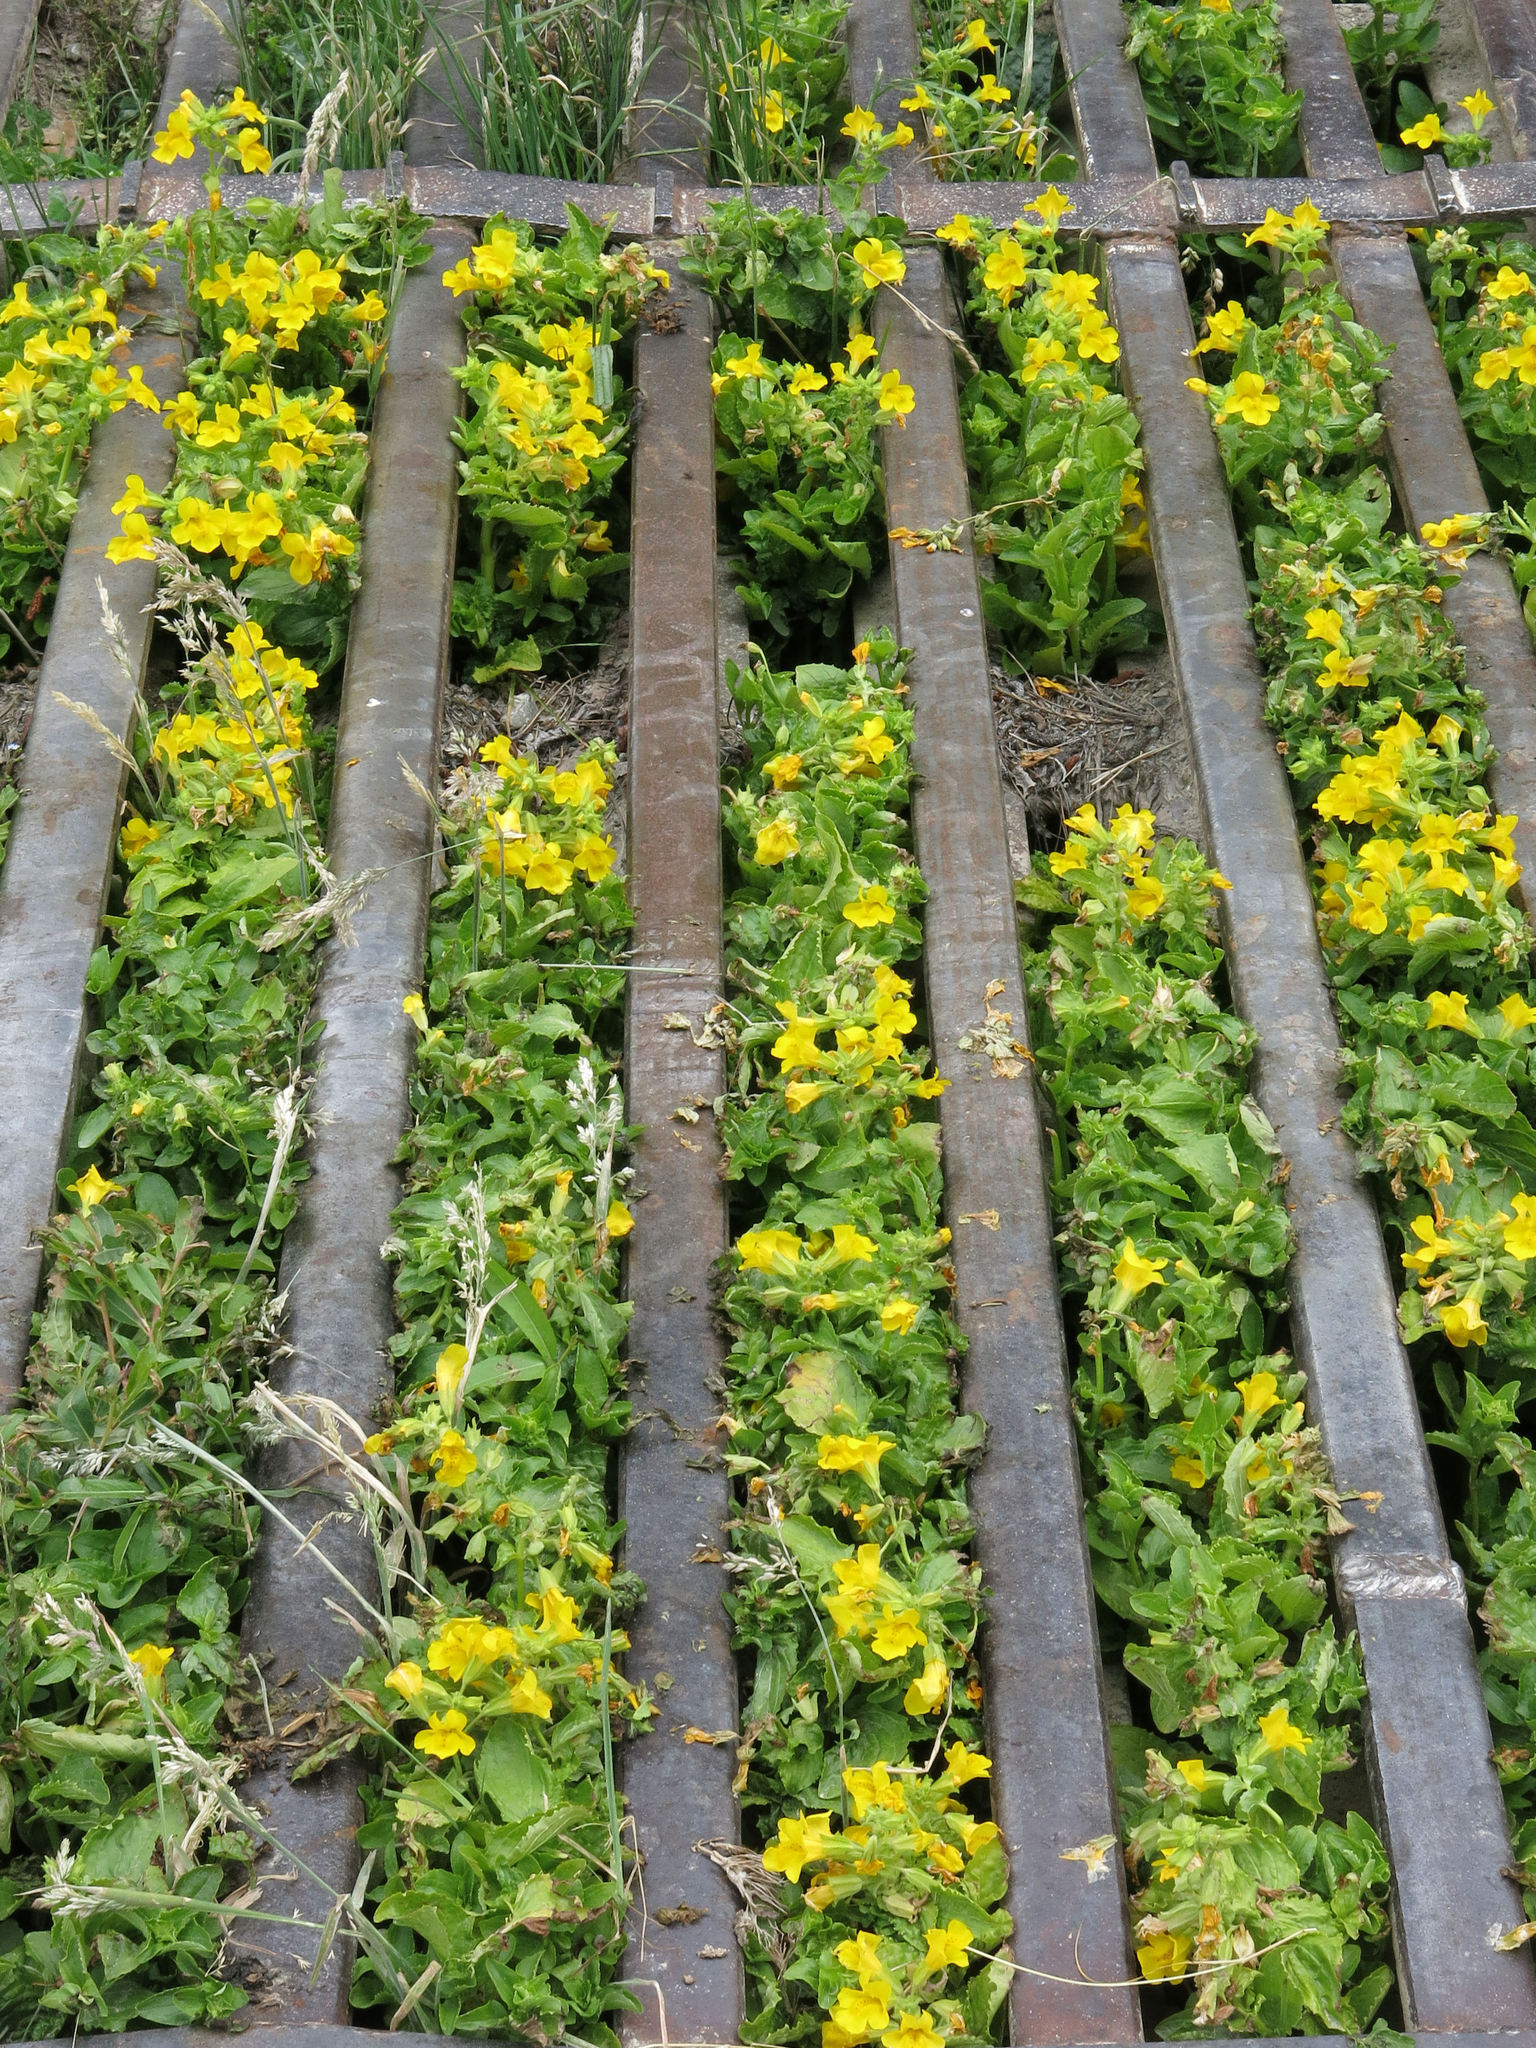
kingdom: Plantae
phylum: Tracheophyta
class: Magnoliopsida
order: Lamiales
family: Phrymaceae
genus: Erythranthe
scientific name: Erythranthe guttata
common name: Monkeyflower
